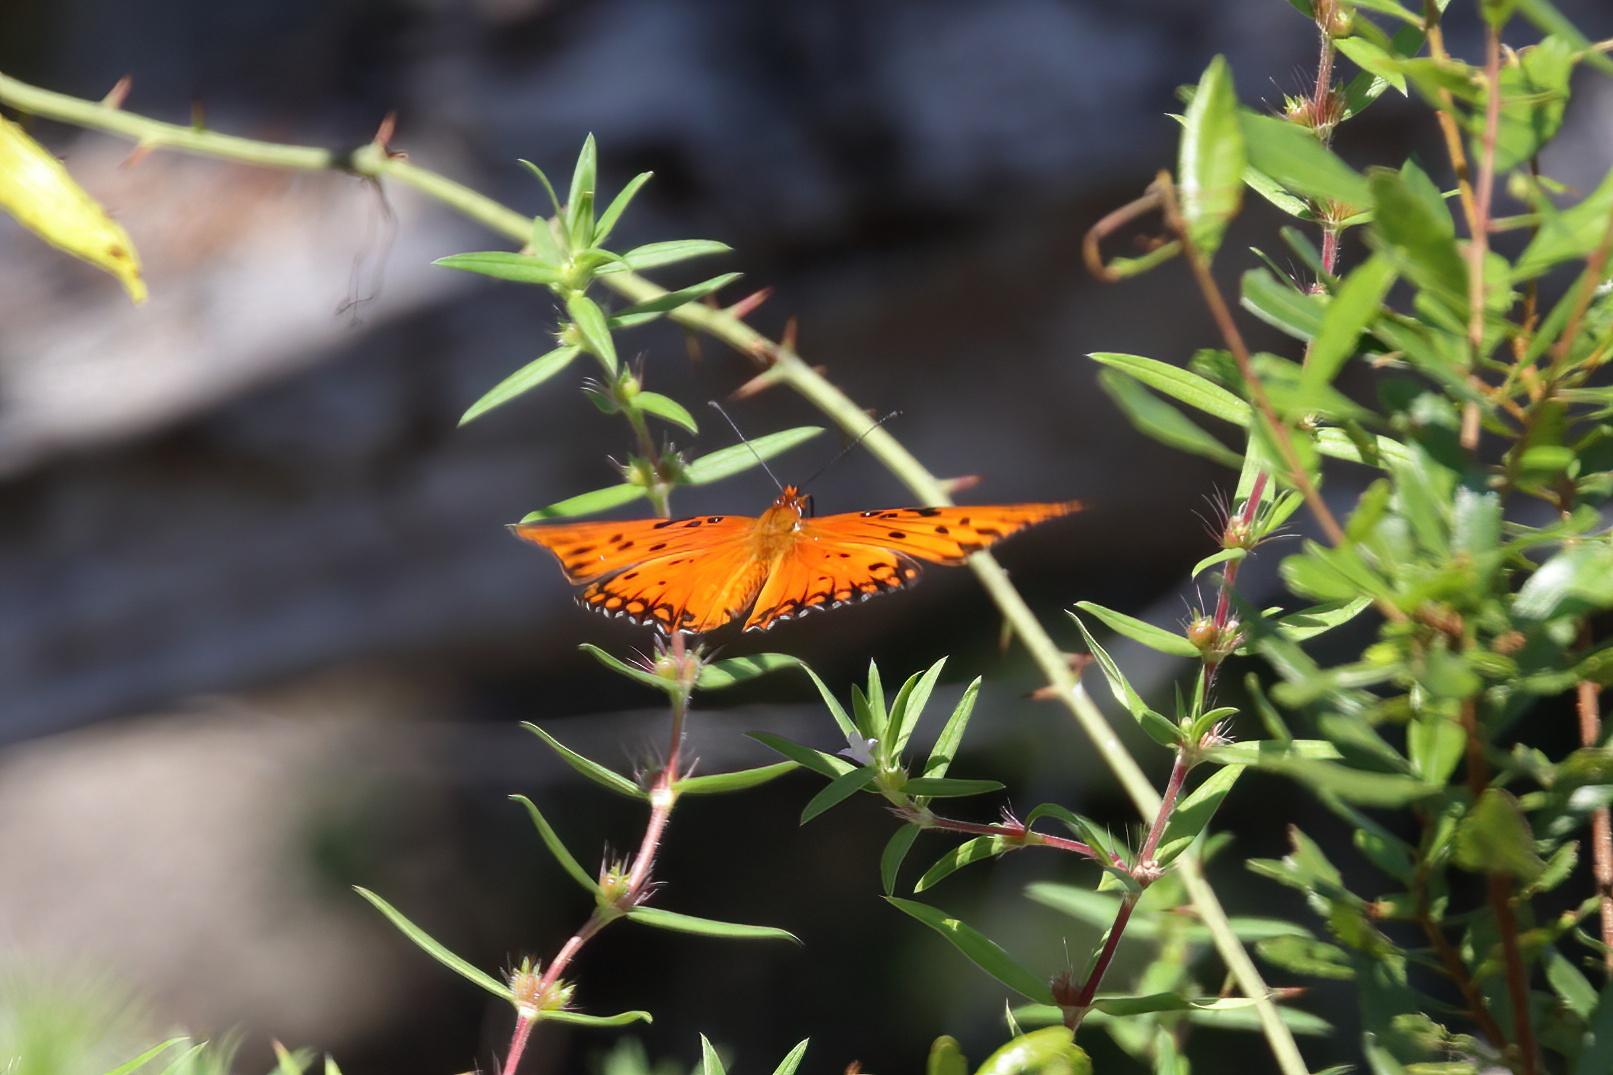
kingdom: Animalia
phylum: Arthropoda
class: Insecta
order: Lepidoptera
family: Nymphalidae
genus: Dione
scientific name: Dione vanillae
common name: Gulf fritillary
